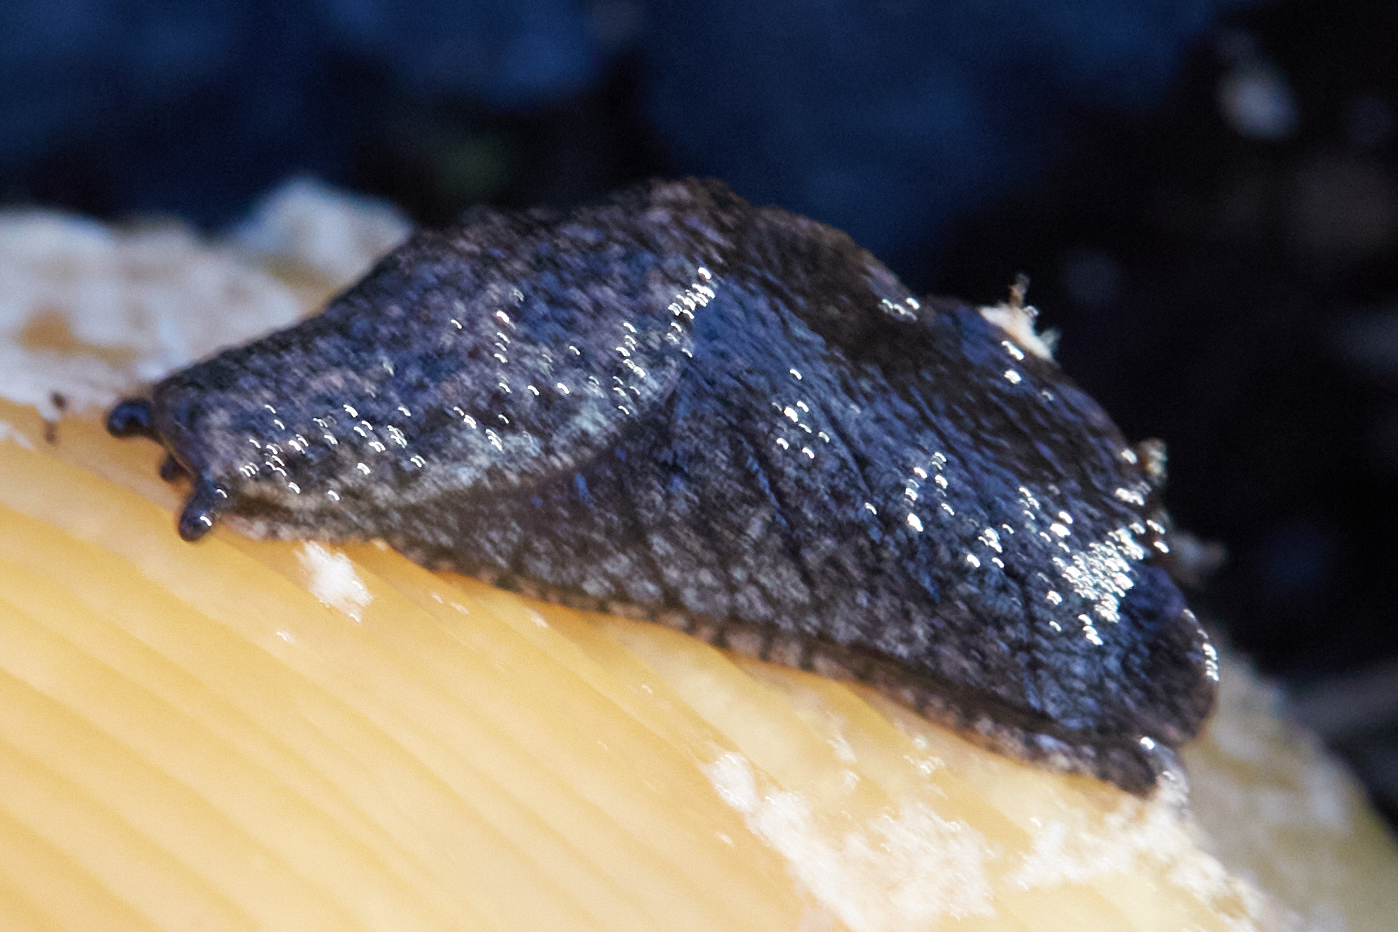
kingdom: Animalia
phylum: Mollusca
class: Gastropoda
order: Stylommatophora
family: Ariolimacidae
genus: Prophysaon
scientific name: Prophysaon andersonii
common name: Reticulate taildropper
